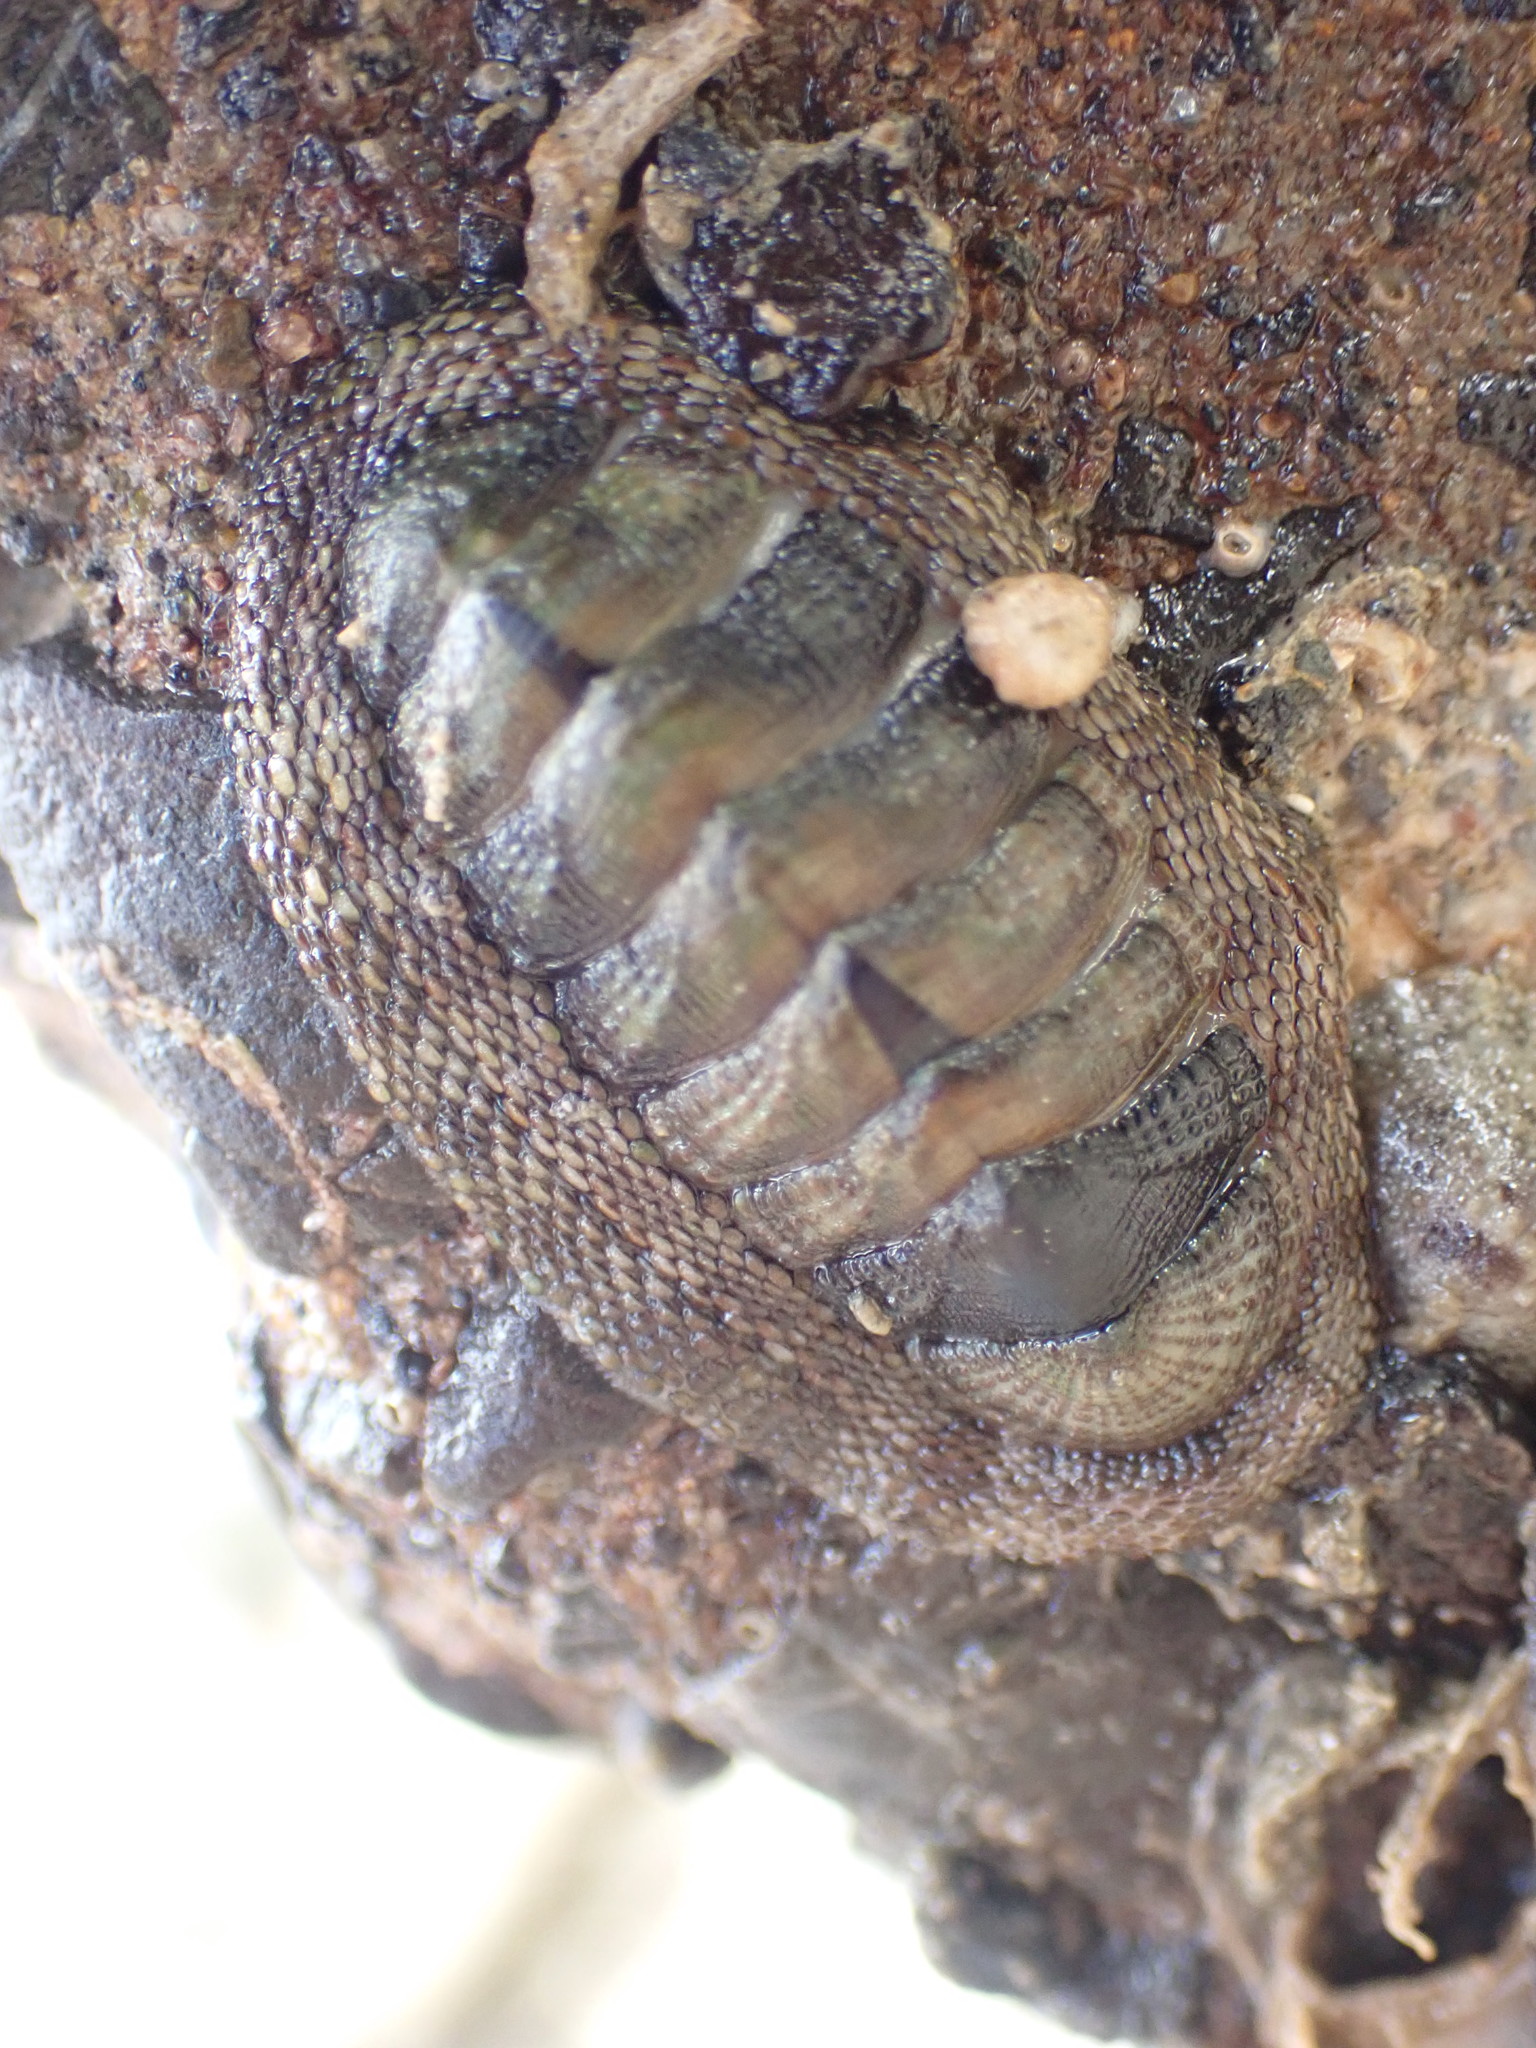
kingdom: Animalia
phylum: Mollusca
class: Polyplacophora
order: Chitonida
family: Chitonidae
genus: Sypharochiton
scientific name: Sypharochiton pelliserpentis
